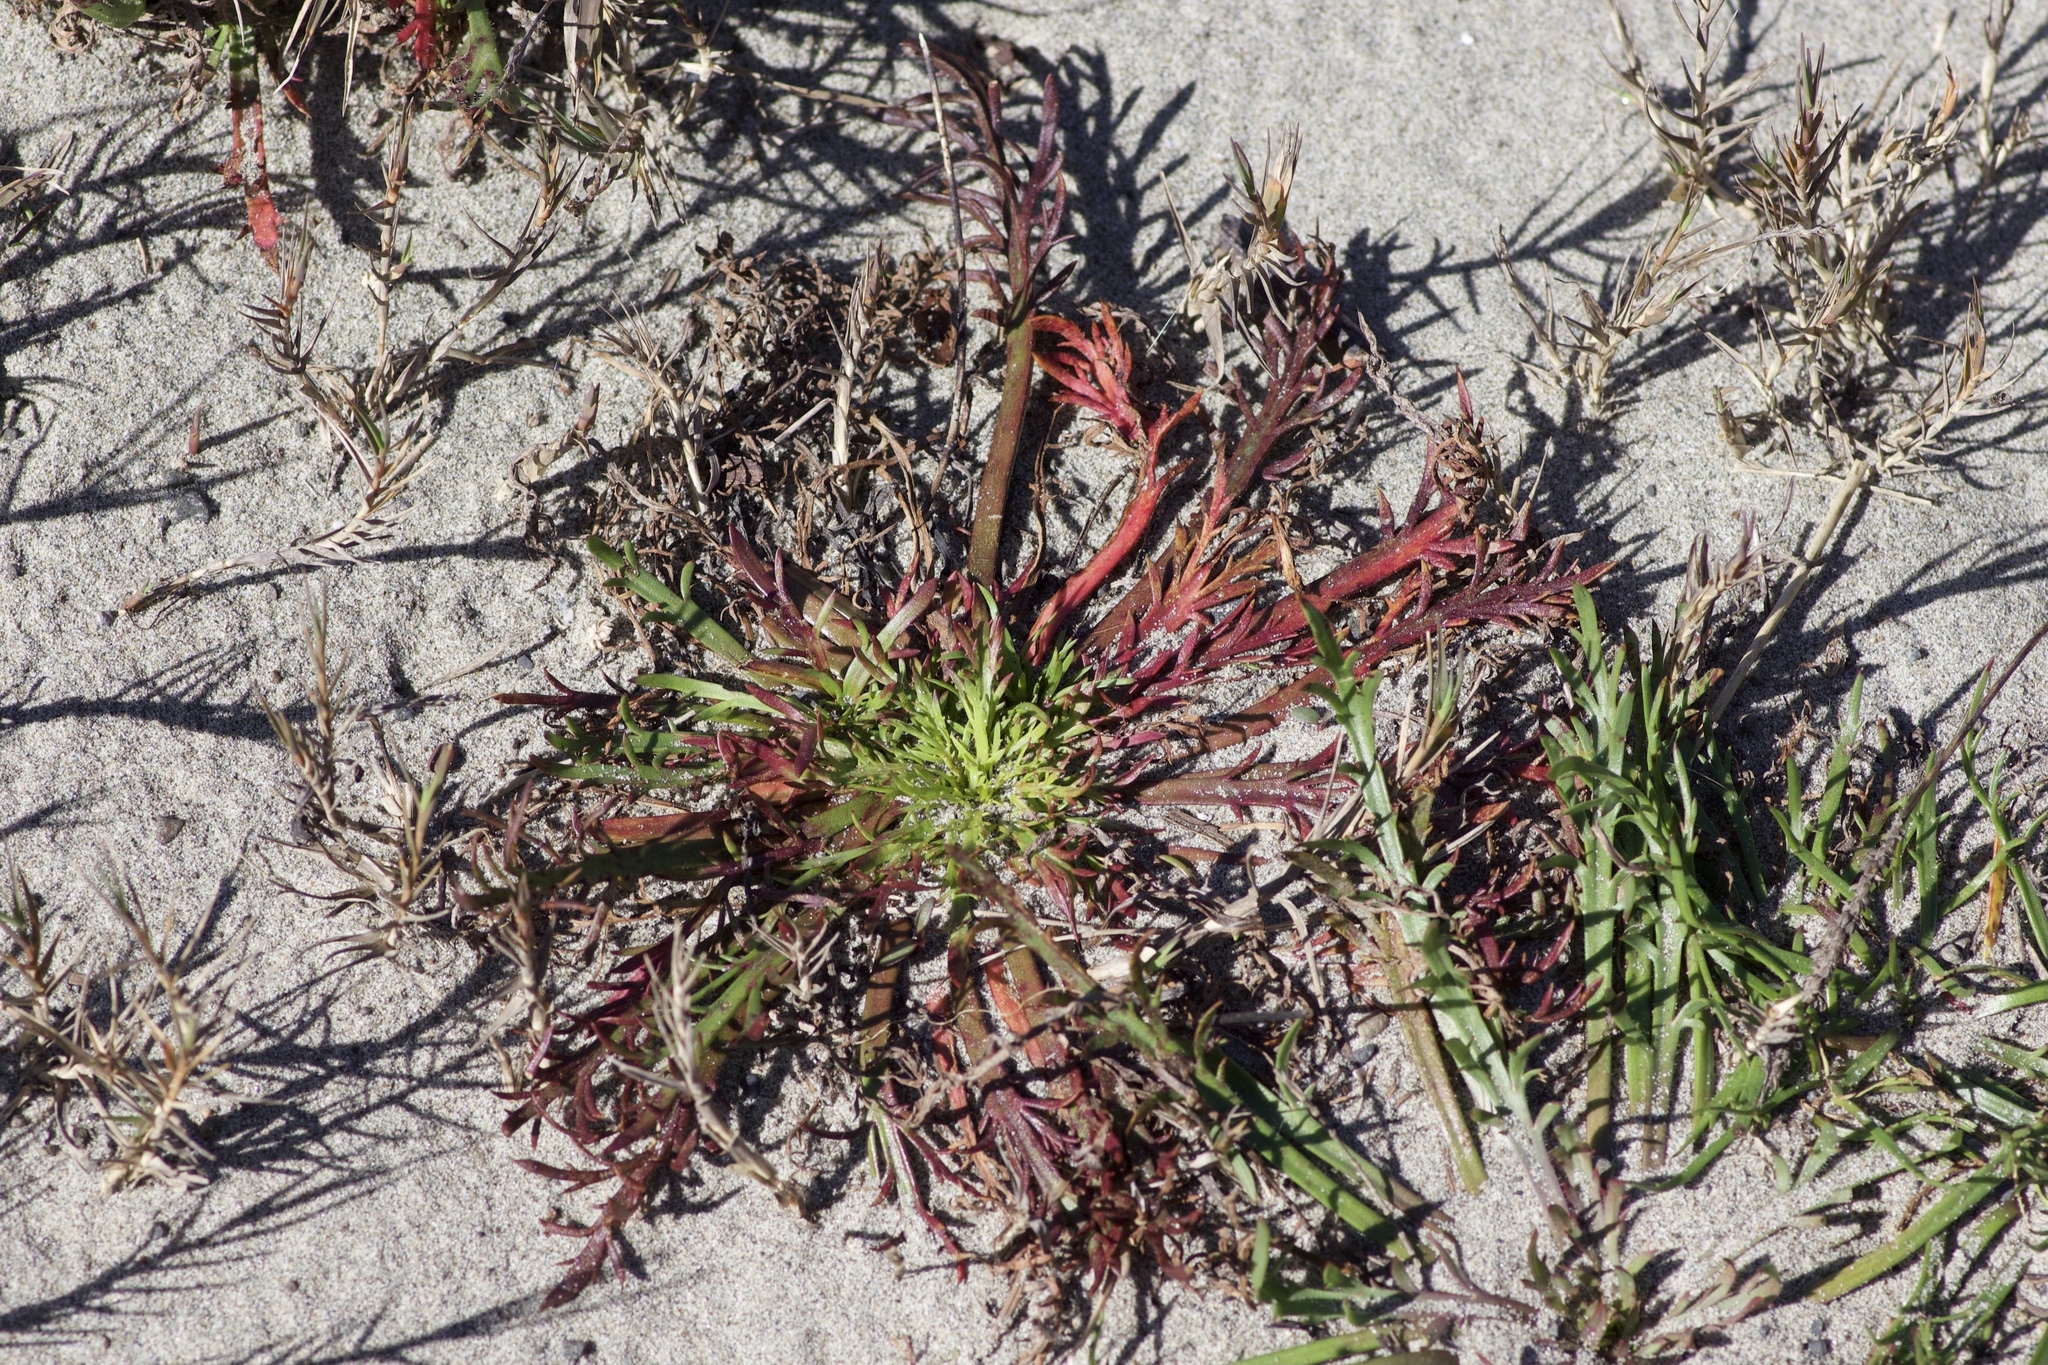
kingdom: Plantae
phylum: Tracheophyta
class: Magnoliopsida
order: Lamiales
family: Plantaginaceae
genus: Plantago
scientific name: Plantago coronopus
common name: Buck's-horn plantain
